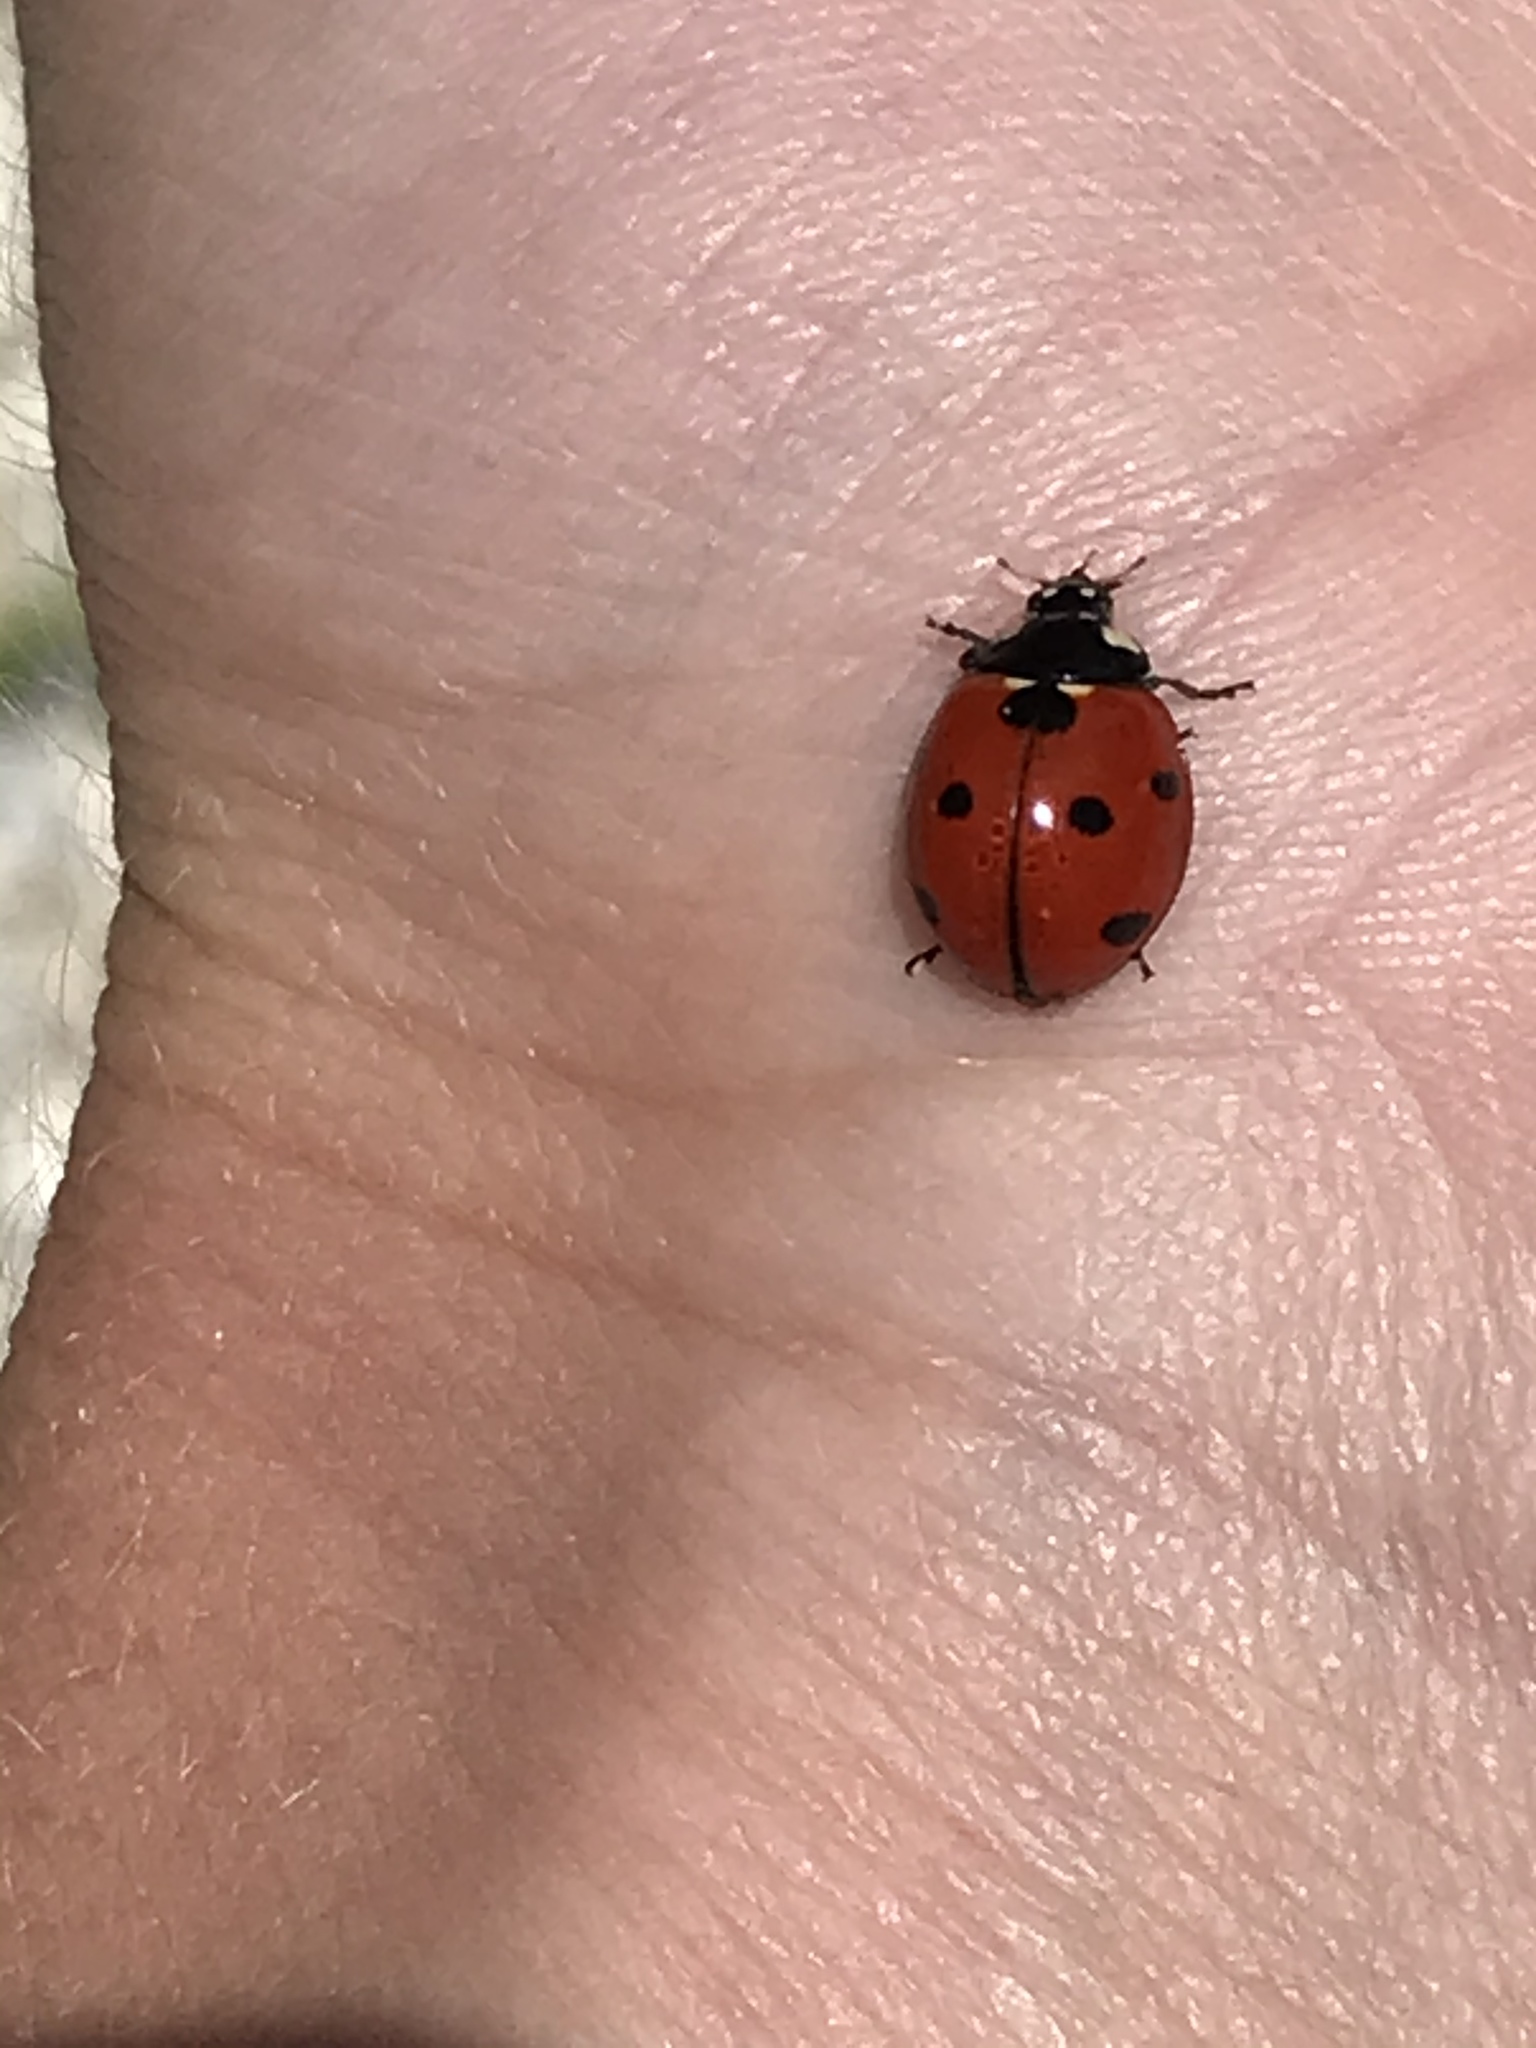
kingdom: Animalia
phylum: Arthropoda
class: Insecta
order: Coleoptera
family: Coccinellidae
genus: Coccinella
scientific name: Coccinella septempunctata
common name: Sevenspotted lady beetle
